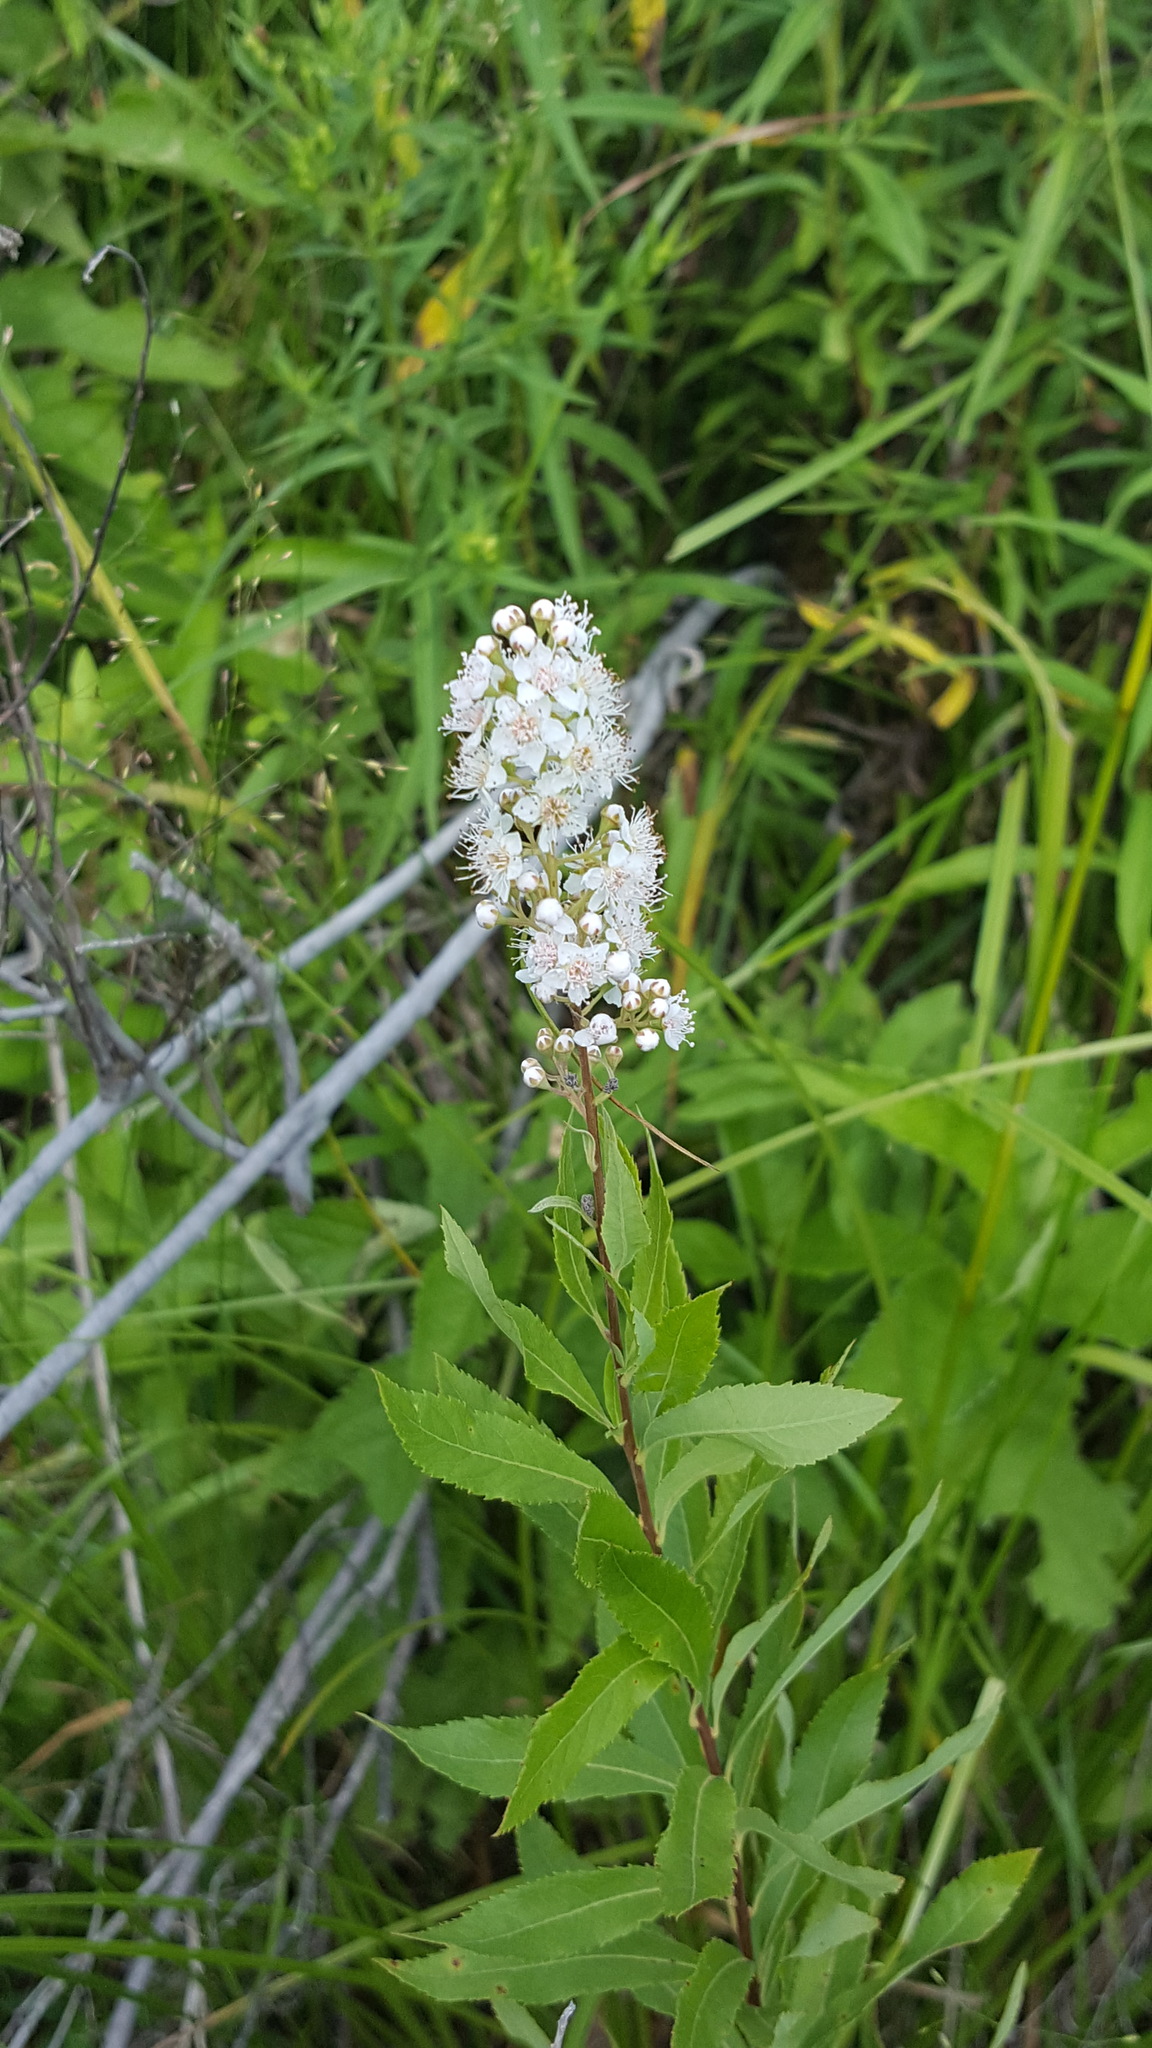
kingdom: Plantae
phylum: Tracheophyta
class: Magnoliopsida
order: Rosales
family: Rosaceae
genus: Spiraea
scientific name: Spiraea alba
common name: Pale bridewort
